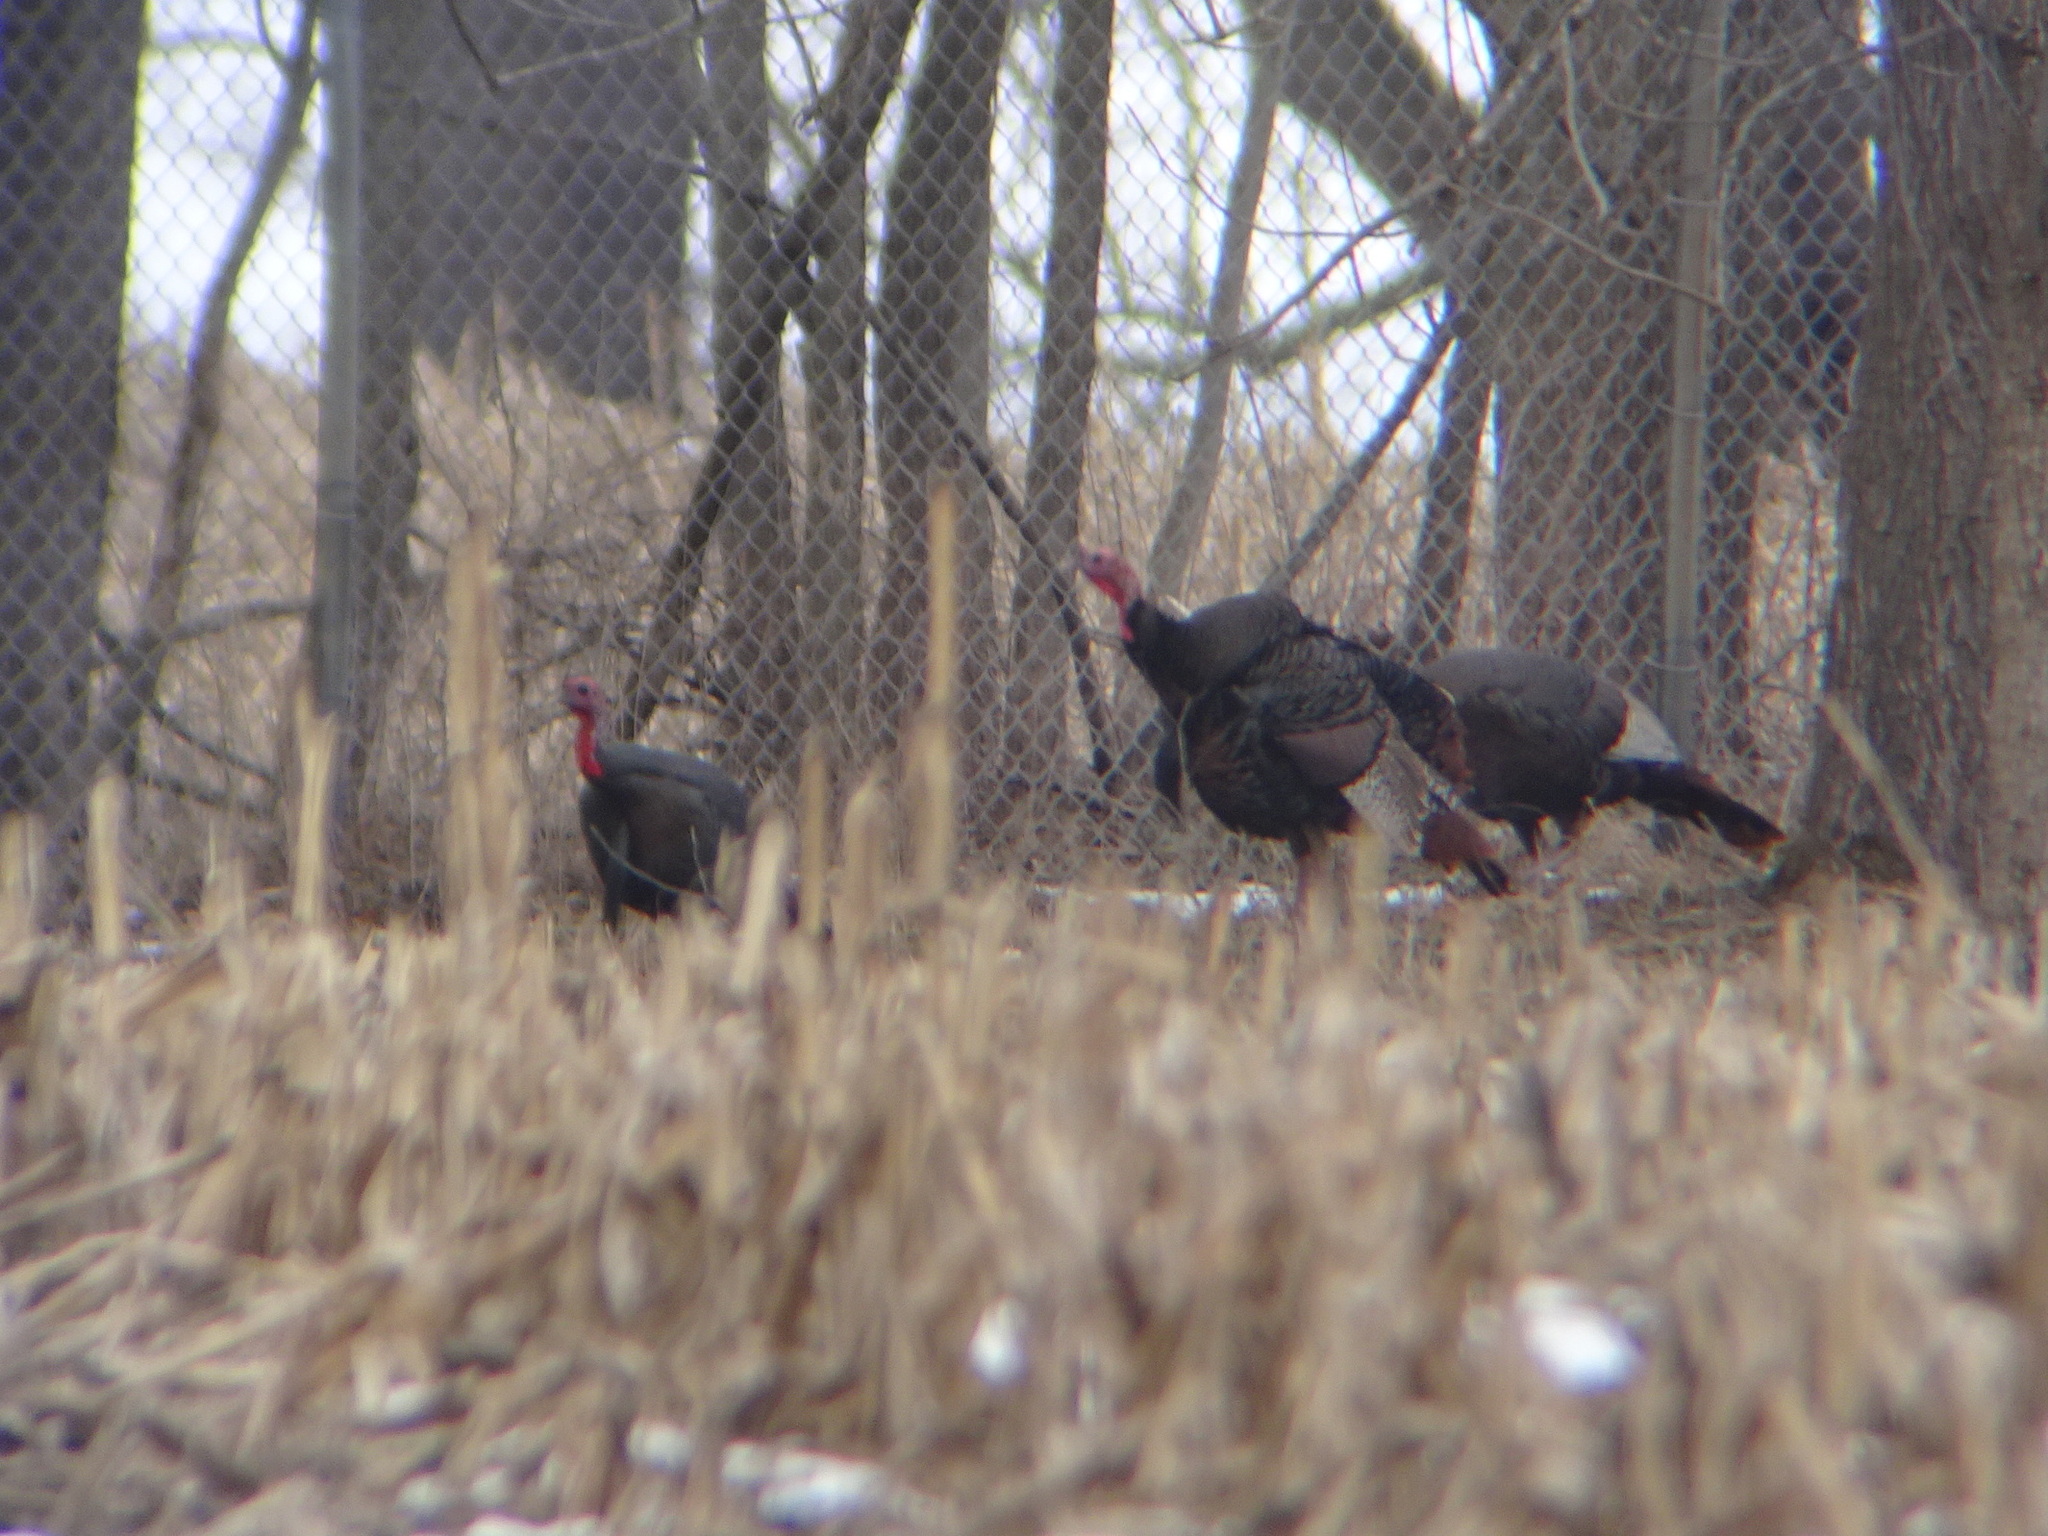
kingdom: Animalia
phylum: Chordata
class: Aves
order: Galliformes
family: Phasianidae
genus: Meleagris
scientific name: Meleagris gallopavo
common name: Wild turkey
